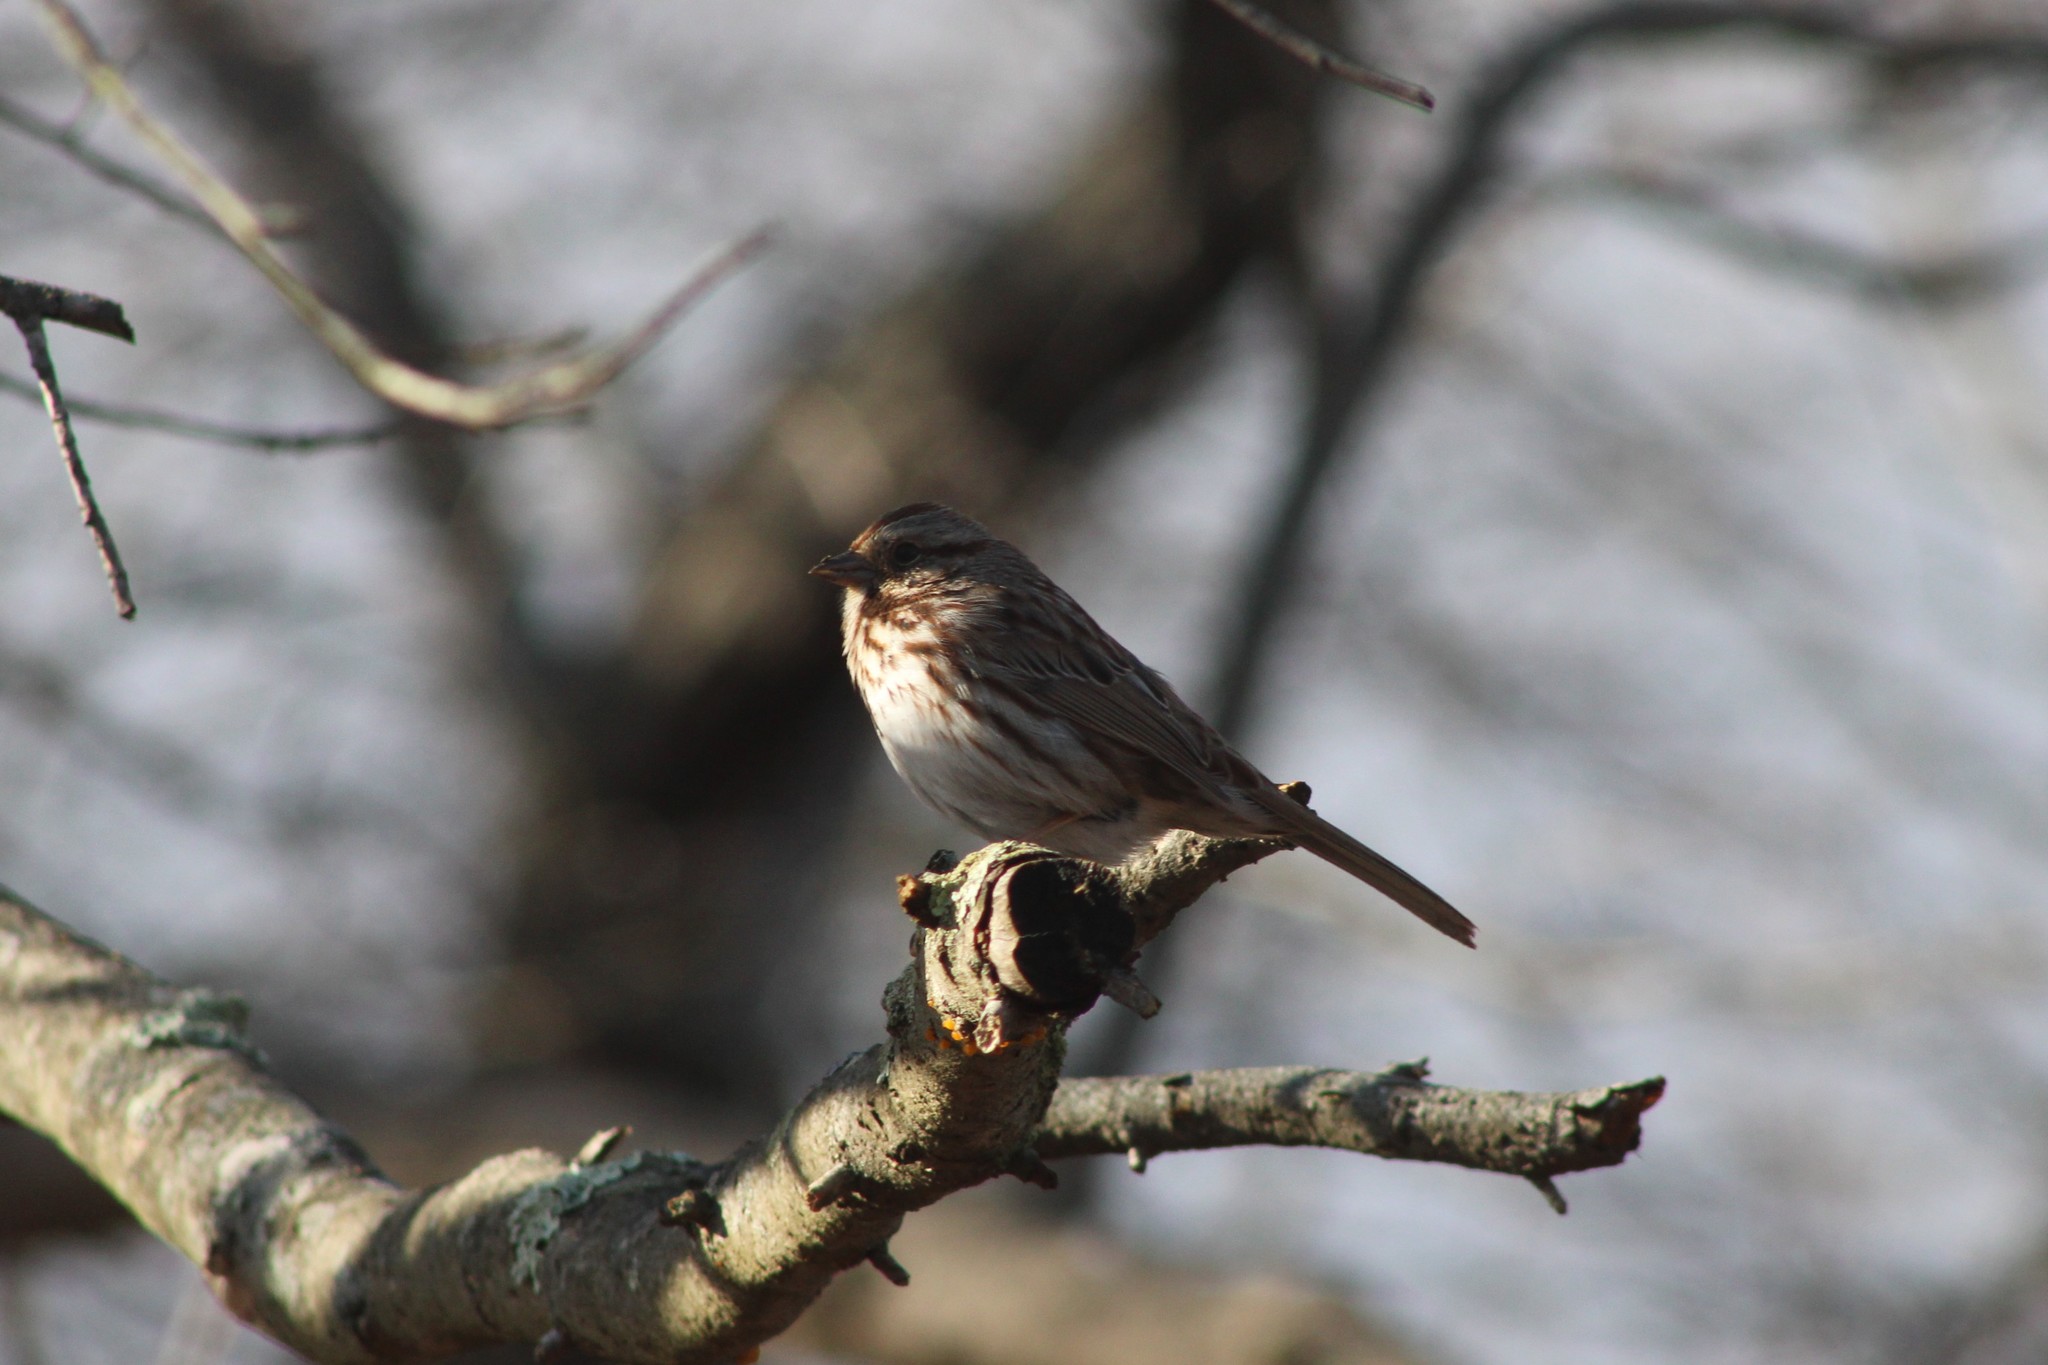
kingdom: Animalia
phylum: Chordata
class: Aves
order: Passeriformes
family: Passerellidae
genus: Melospiza
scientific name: Melospiza melodia
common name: Song sparrow
